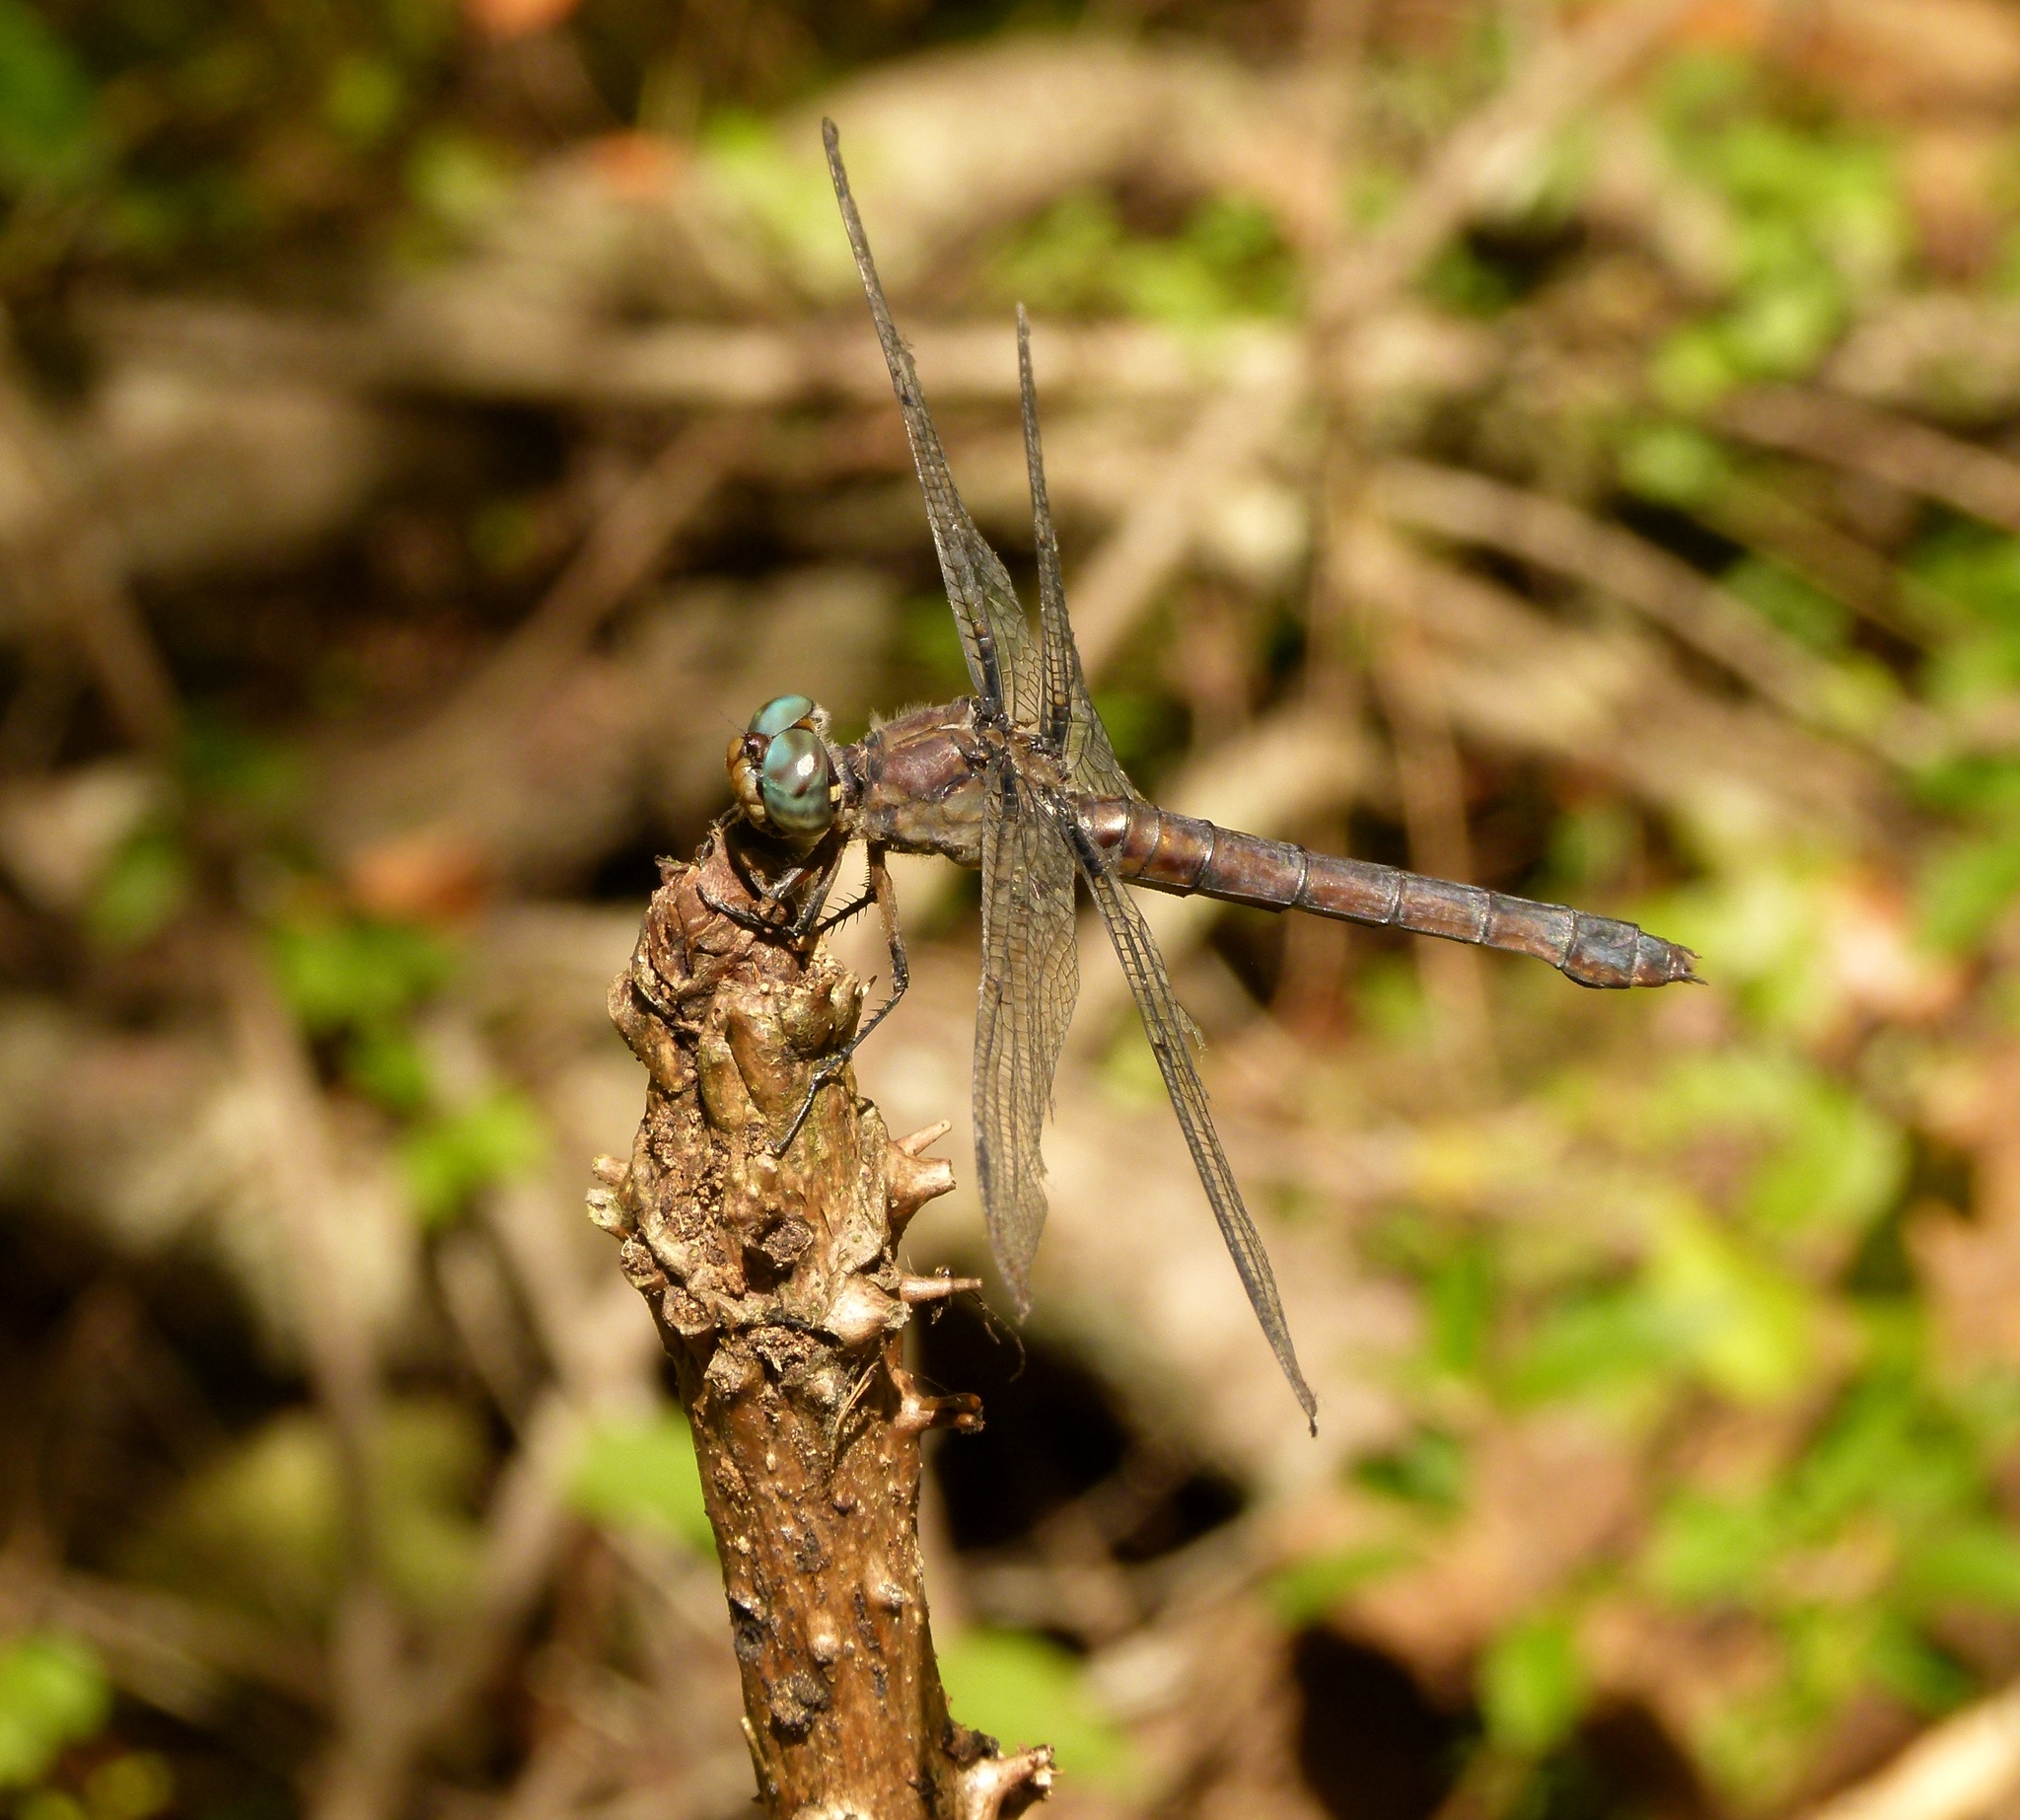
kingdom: Animalia
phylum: Arthropoda
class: Insecta
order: Odonata
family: Libellulidae
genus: Libellula
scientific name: Libellula vibrans
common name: Great blue skimmer
